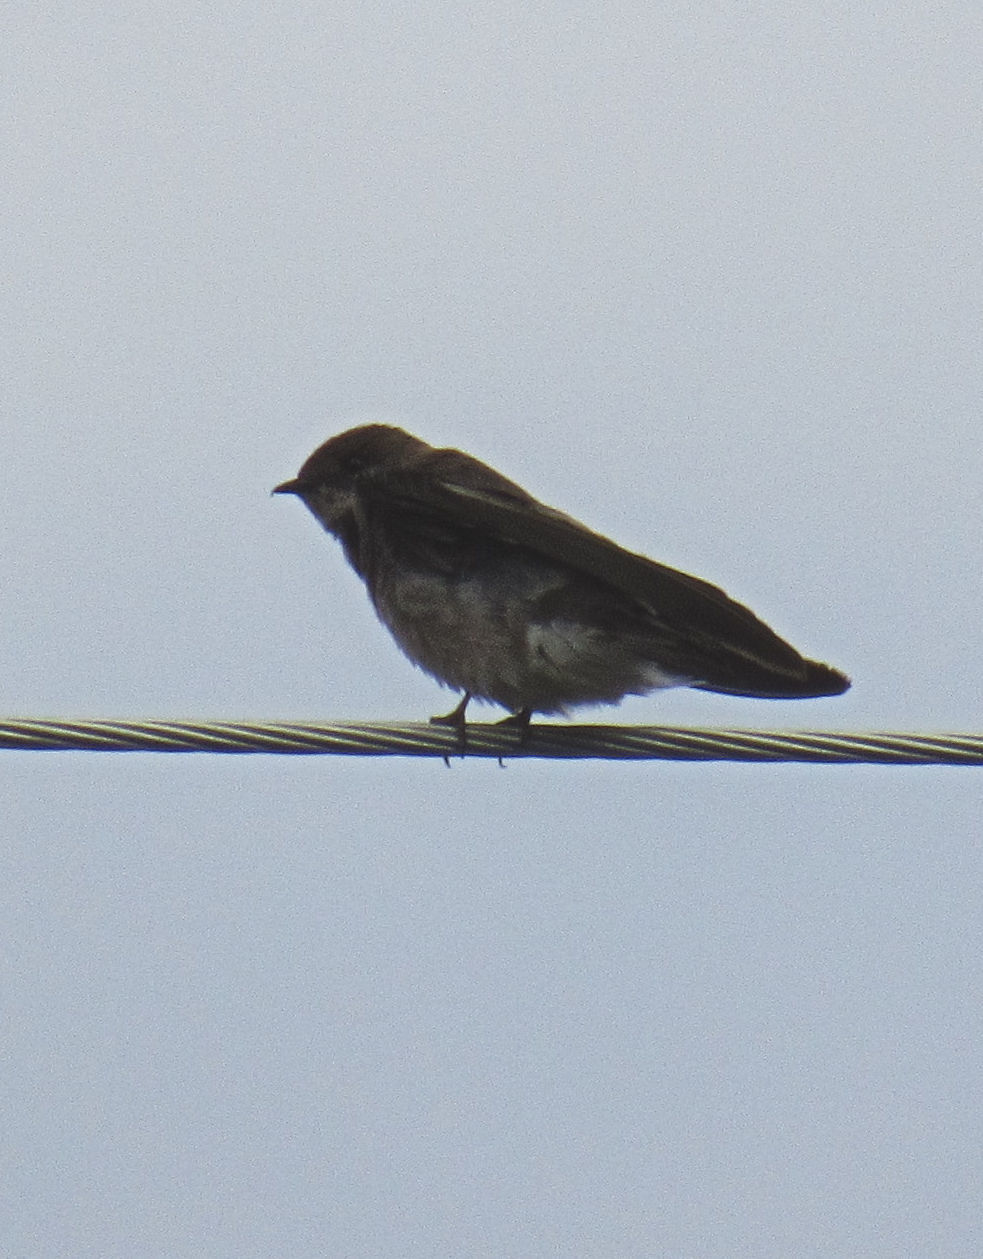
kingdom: Animalia
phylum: Chordata
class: Aves
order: Passeriformes
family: Hirundinidae
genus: Stelgidopteryx
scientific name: Stelgidopteryx serripennis
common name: Northern rough-winged swallow
